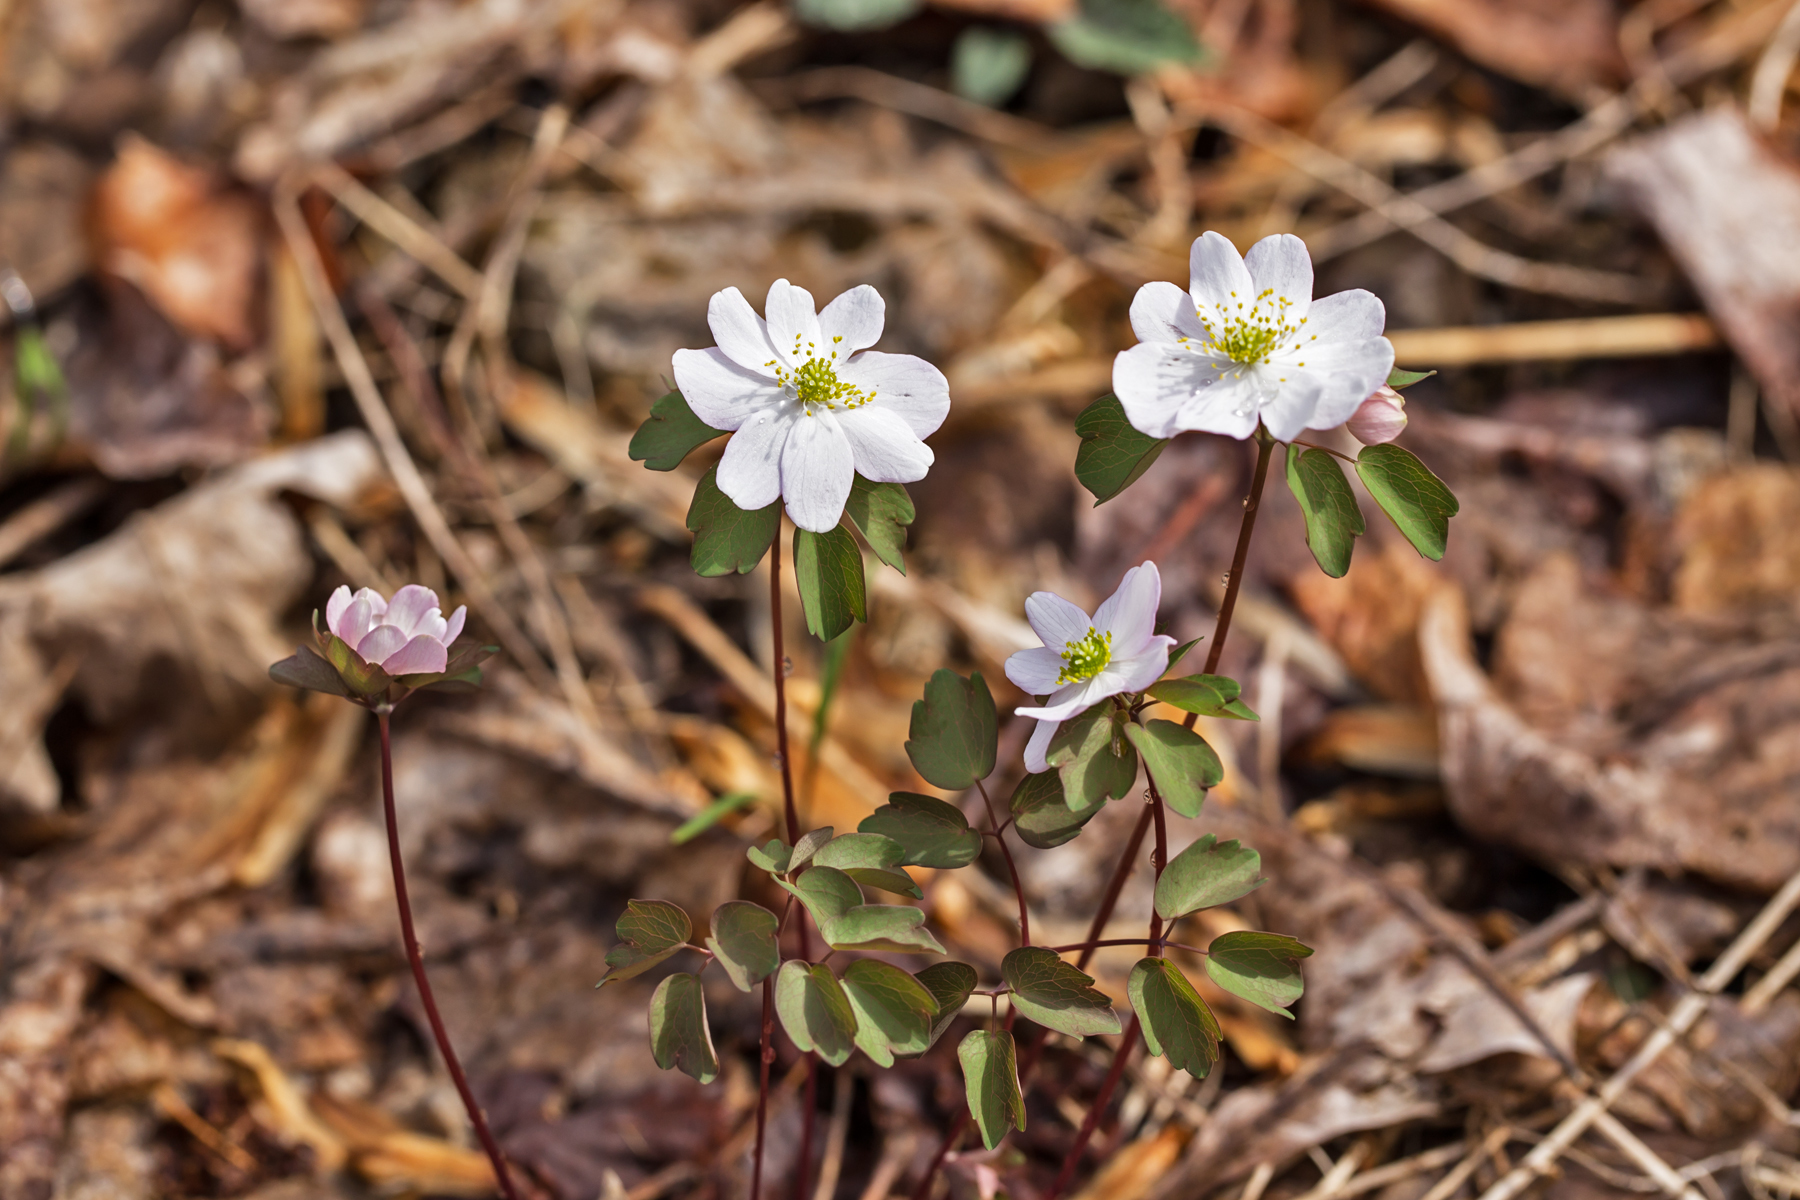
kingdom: Plantae
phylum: Tracheophyta
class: Magnoliopsida
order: Ranunculales
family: Ranunculaceae
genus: Thalictrum
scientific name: Thalictrum thalictroides
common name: Rue-anemone
